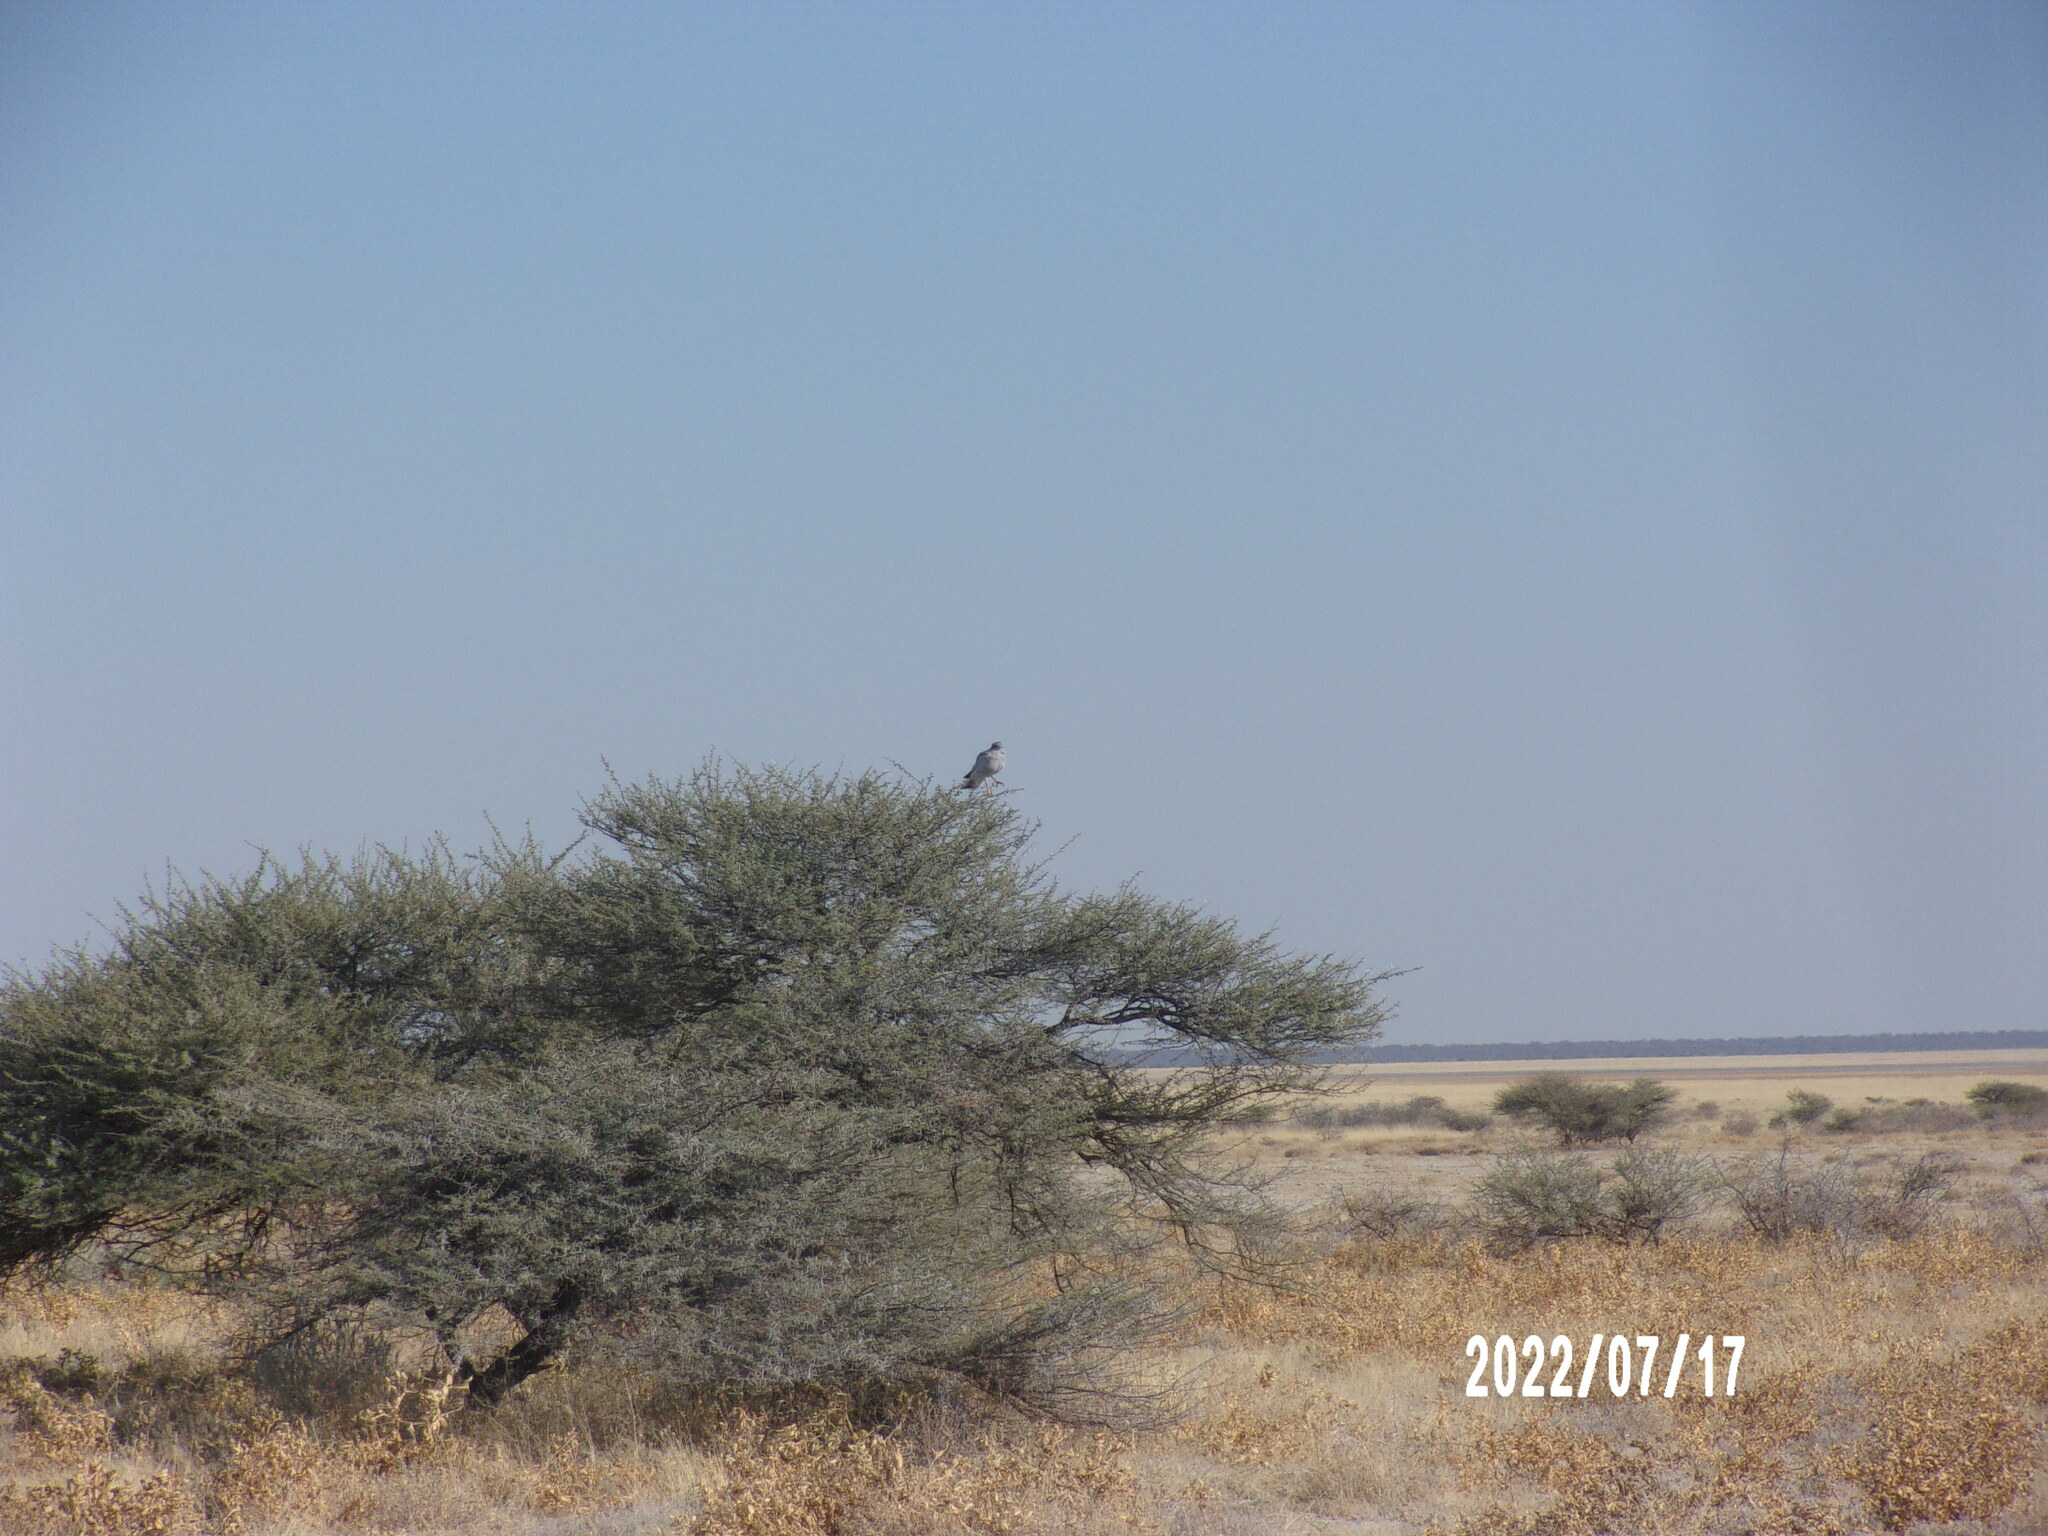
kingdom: Animalia
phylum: Chordata
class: Aves
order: Accipitriformes
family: Accipitridae
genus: Melierax
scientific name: Melierax canorus
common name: Pale chanting-goshawk
